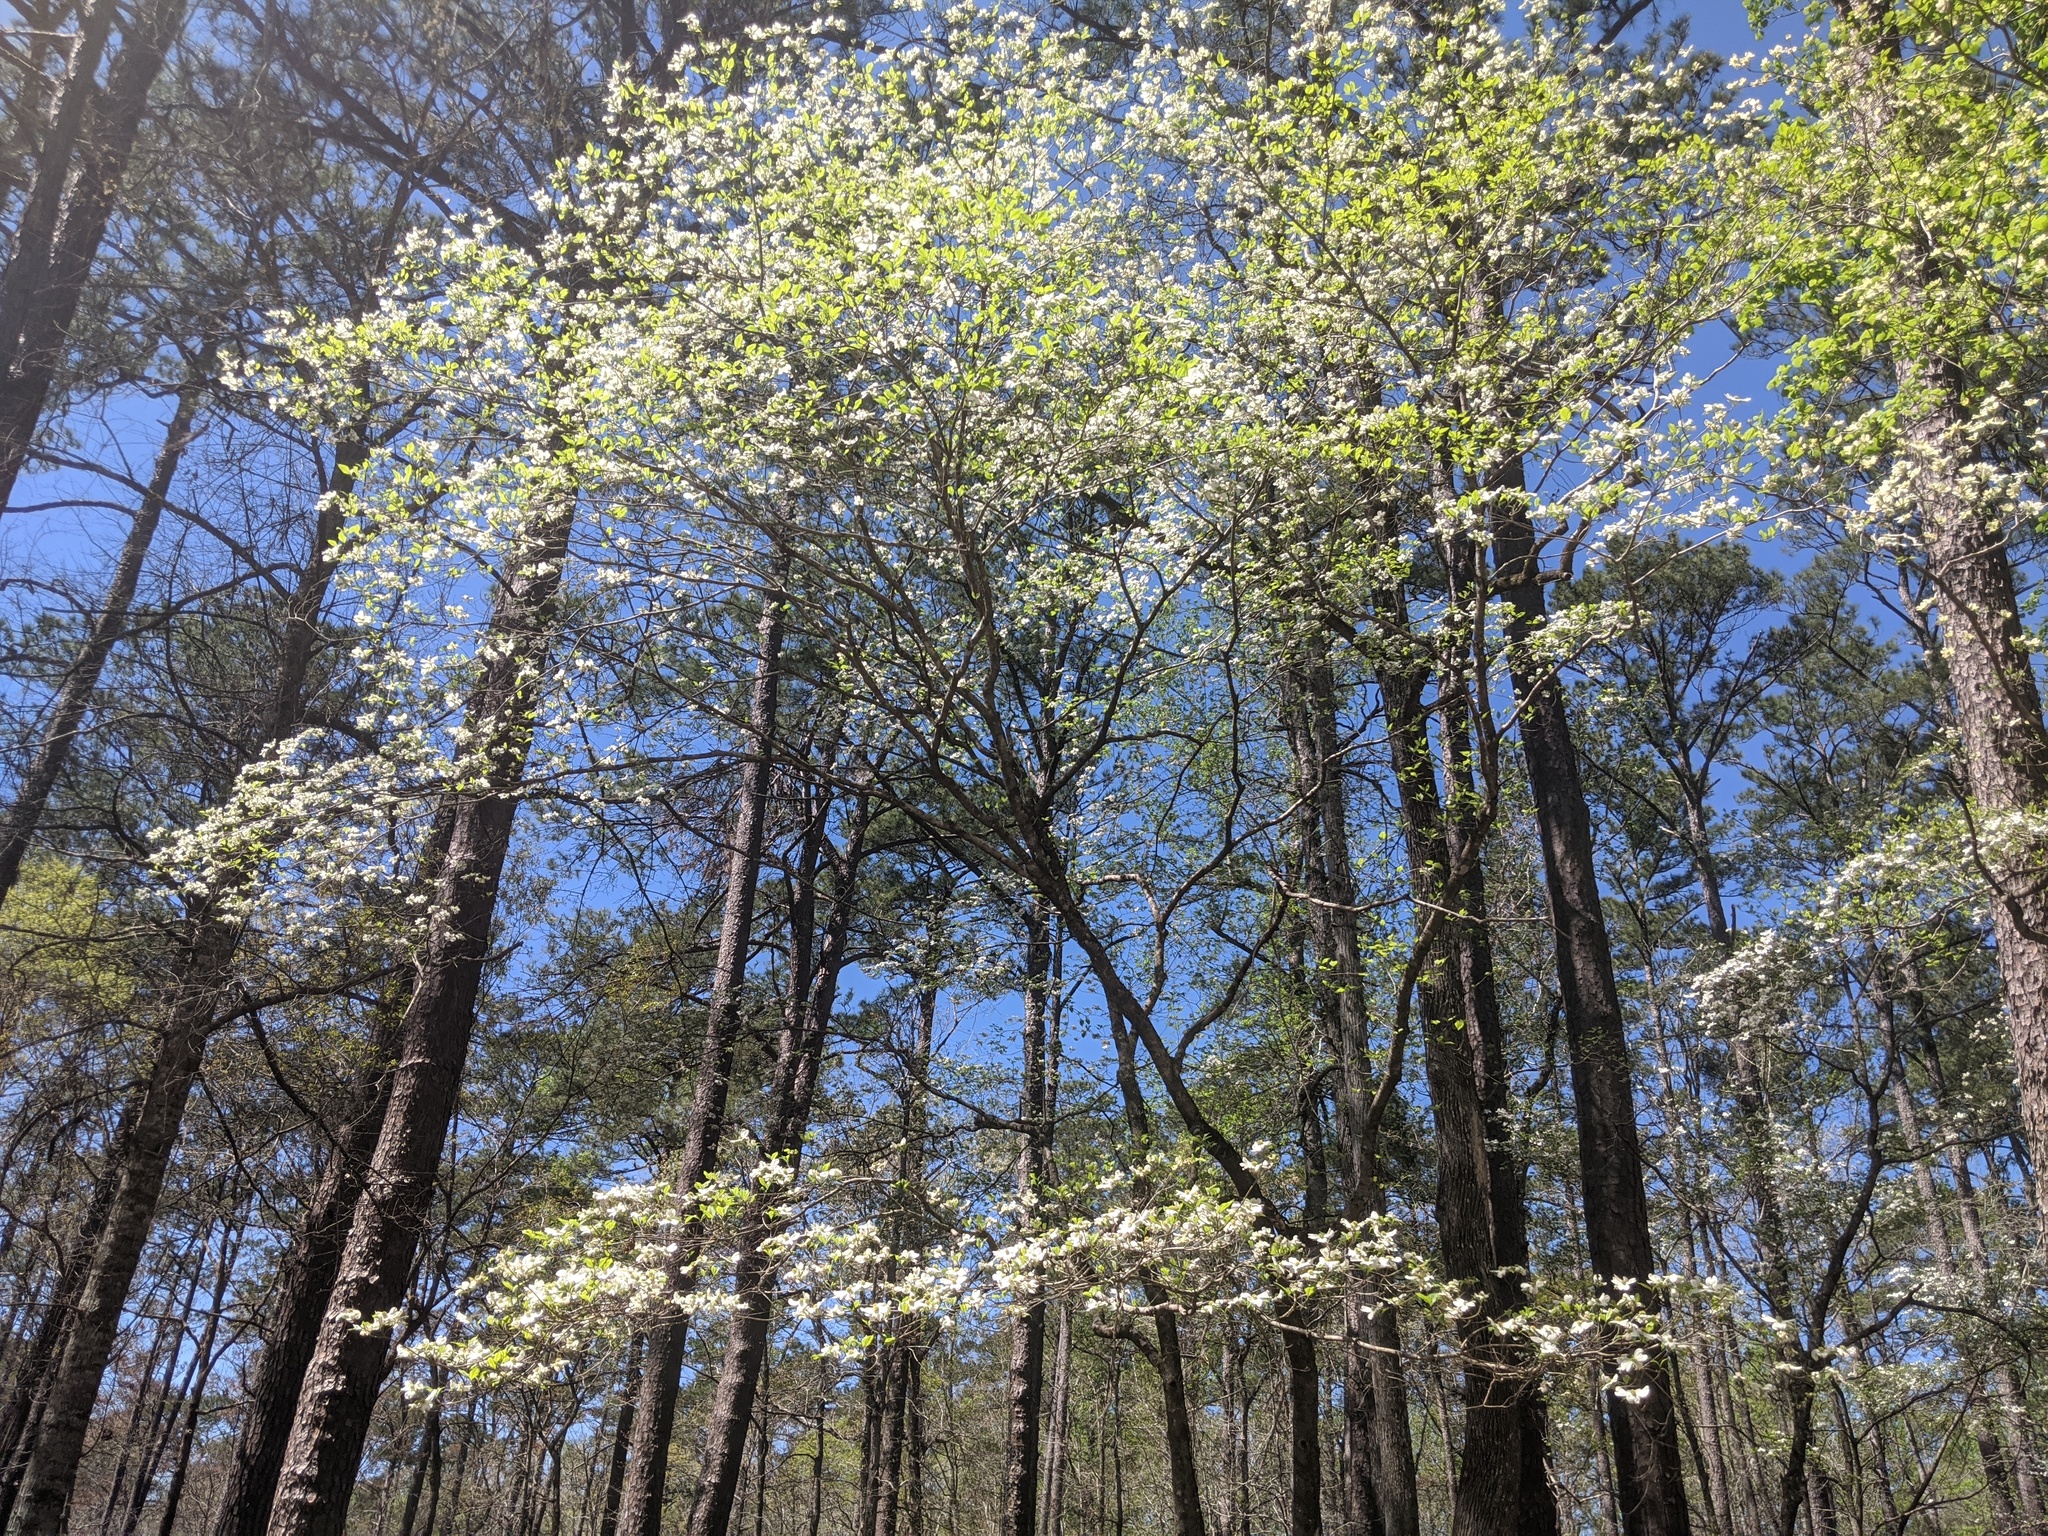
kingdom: Plantae
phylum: Tracheophyta
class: Magnoliopsida
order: Cornales
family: Cornaceae
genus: Cornus
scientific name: Cornus florida
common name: Flowering dogwood
